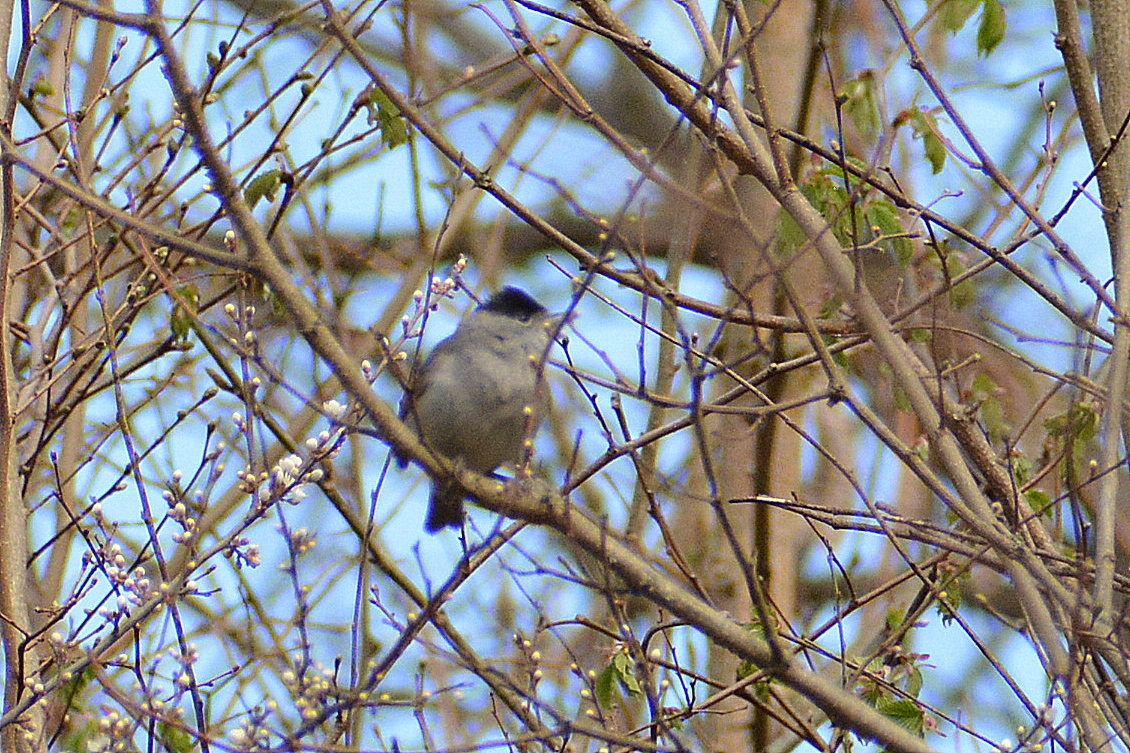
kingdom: Animalia
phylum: Chordata
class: Aves
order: Passeriformes
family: Sylviidae
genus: Sylvia
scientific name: Sylvia atricapilla
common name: Eurasian blackcap
